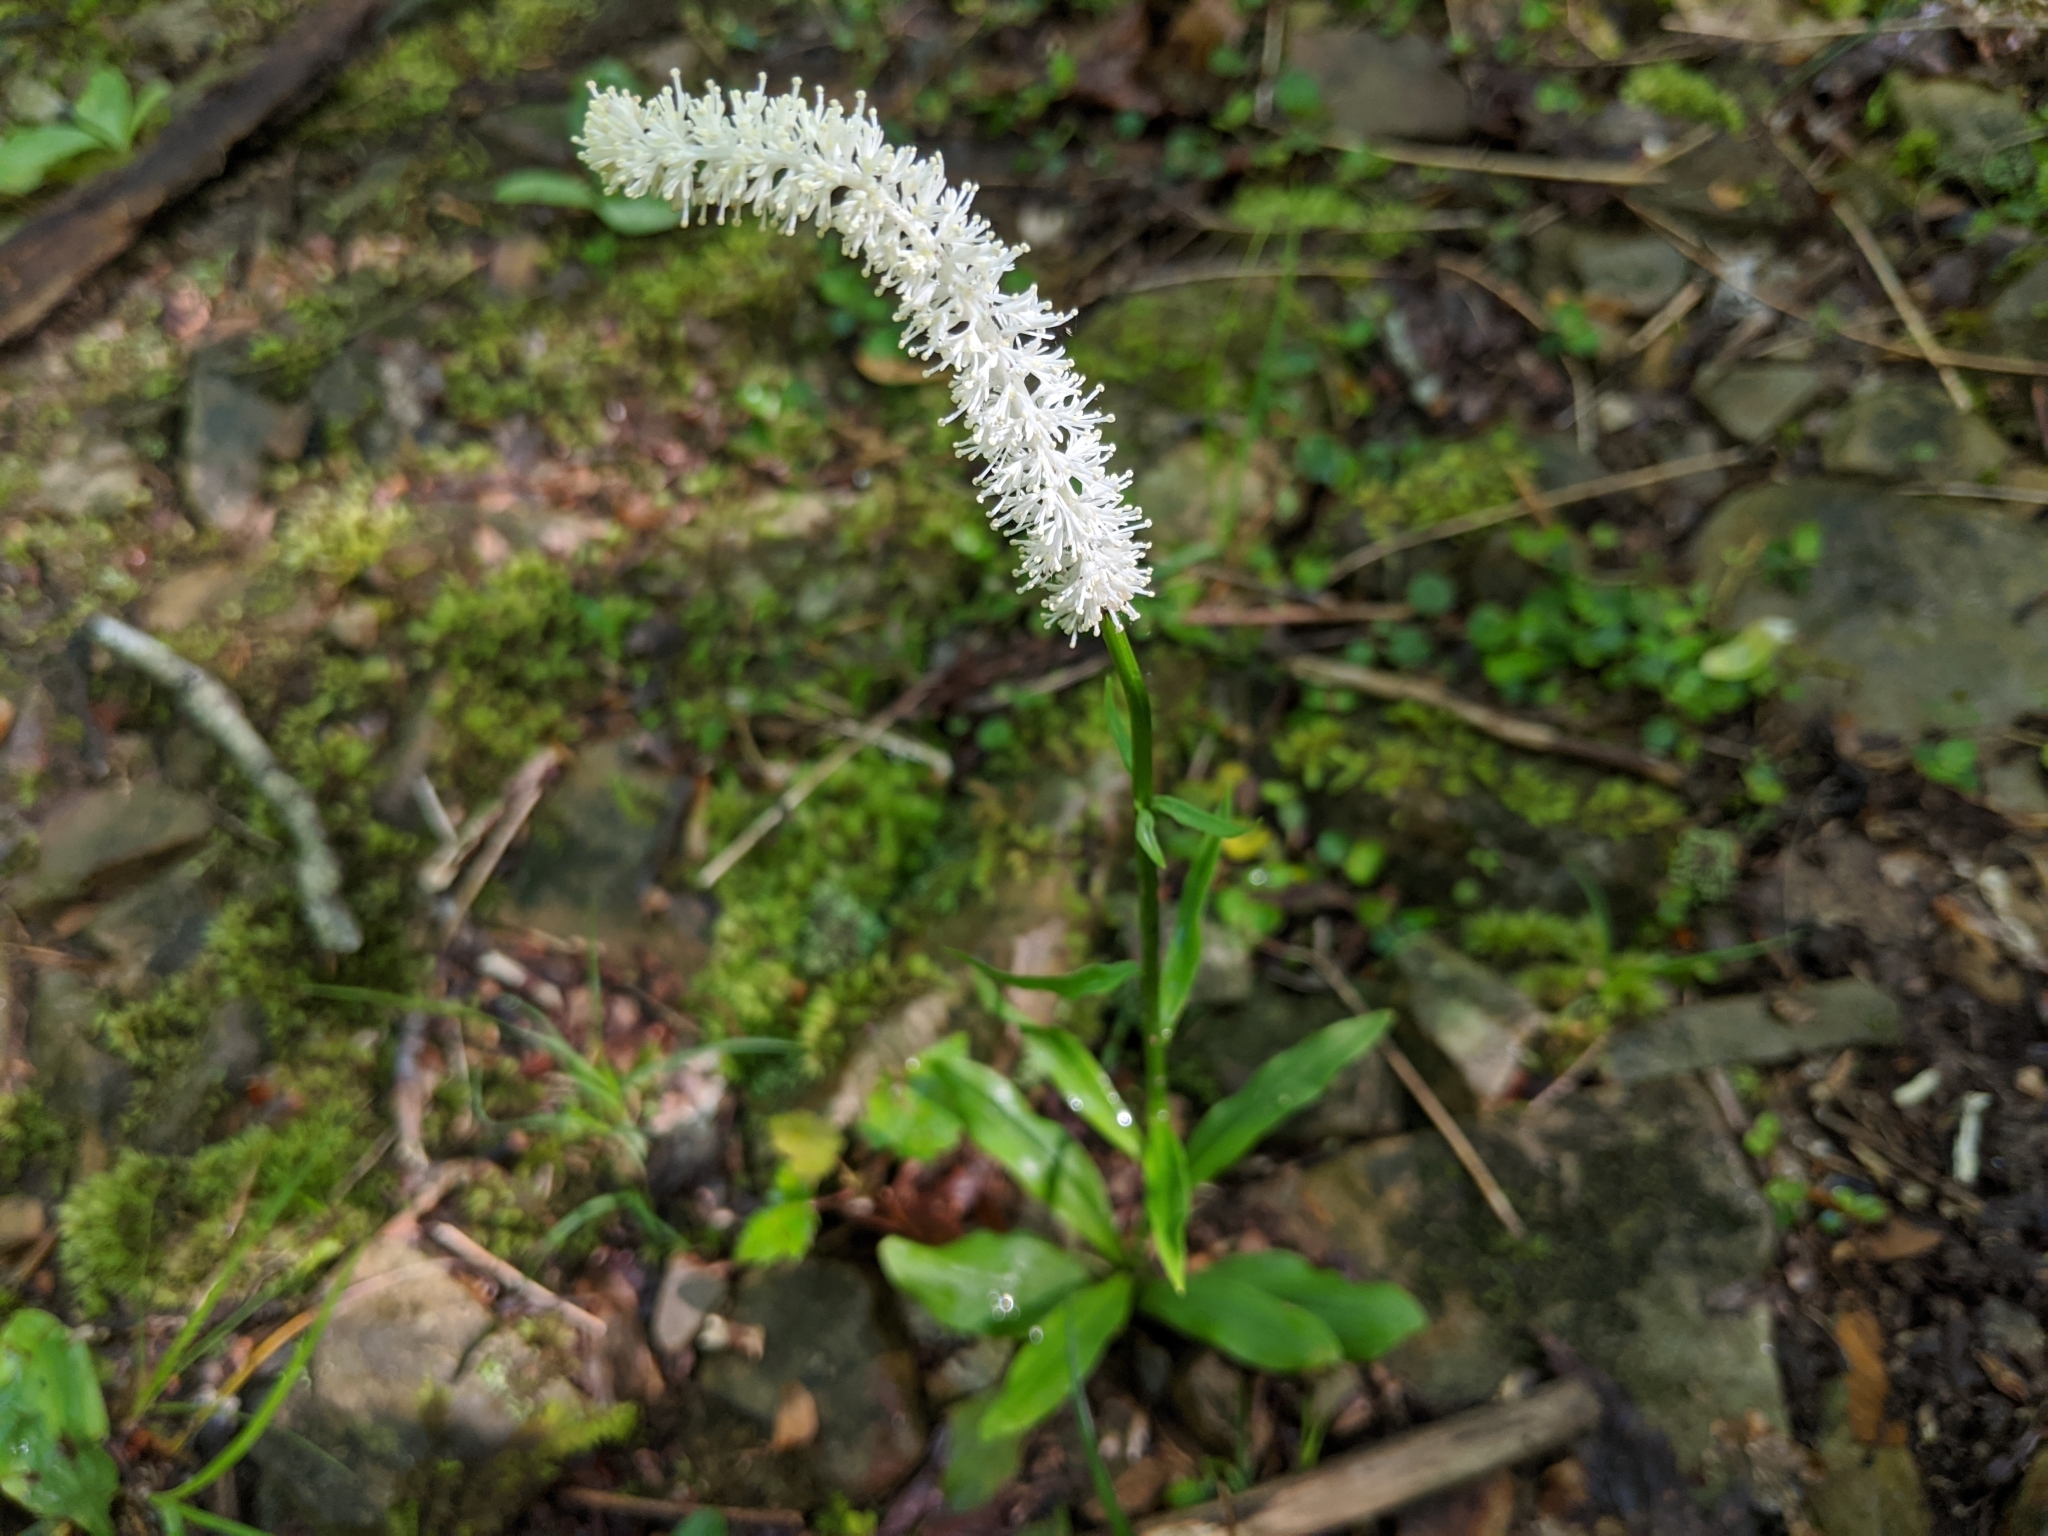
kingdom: Plantae
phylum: Tracheophyta
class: Liliopsida
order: Liliales
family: Melanthiaceae
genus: Chamaelirium
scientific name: Chamaelirium luteum
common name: Fairy-wand
